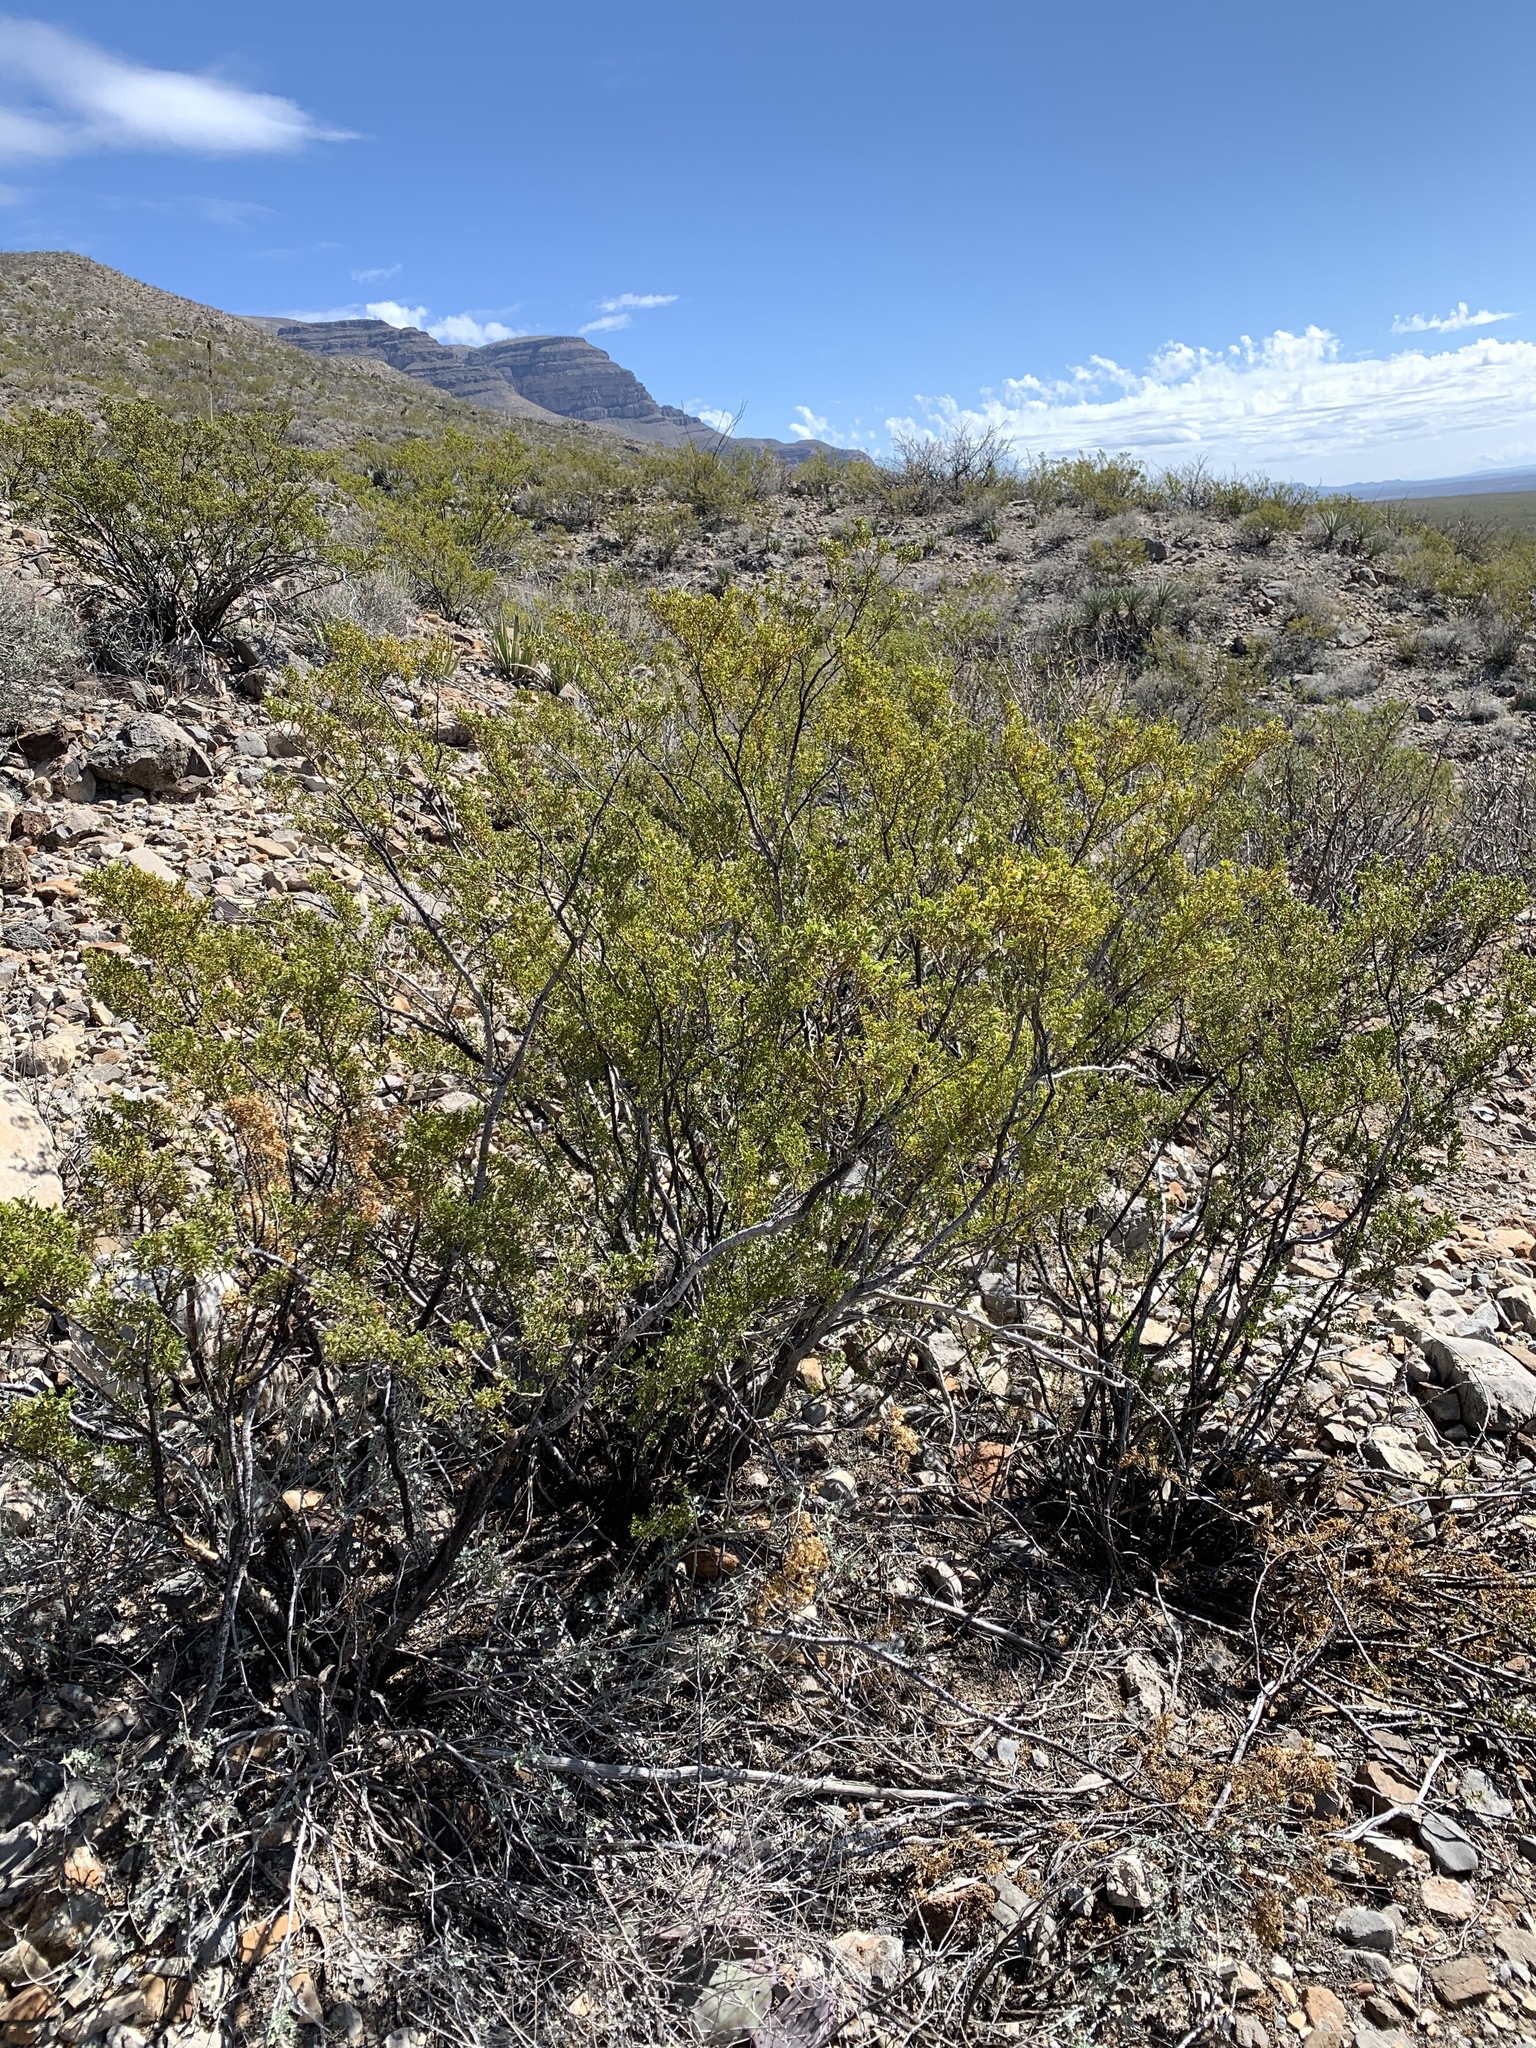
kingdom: Plantae
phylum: Tracheophyta
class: Magnoliopsida
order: Zygophyllales
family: Zygophyllaceae
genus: Larrea
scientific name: Larrea tridentata
